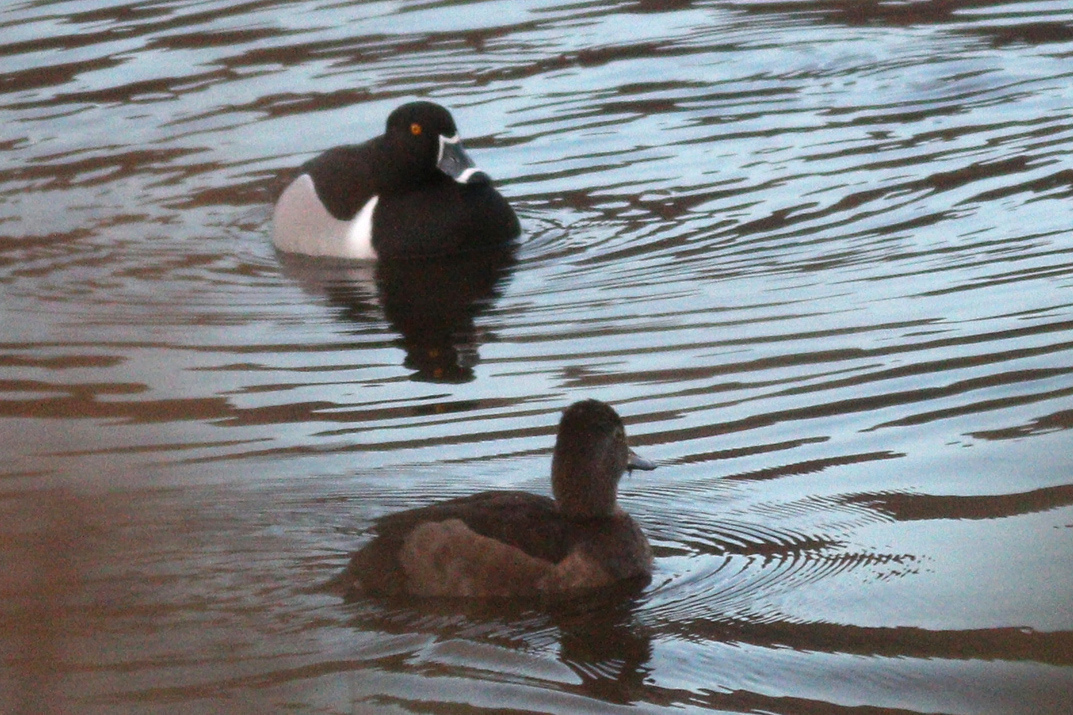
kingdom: Animalia
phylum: Chordata
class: Aves
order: Anseriformes
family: Anatidae
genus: Aythya
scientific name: Aythya collaris
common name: Ring-necked duck
